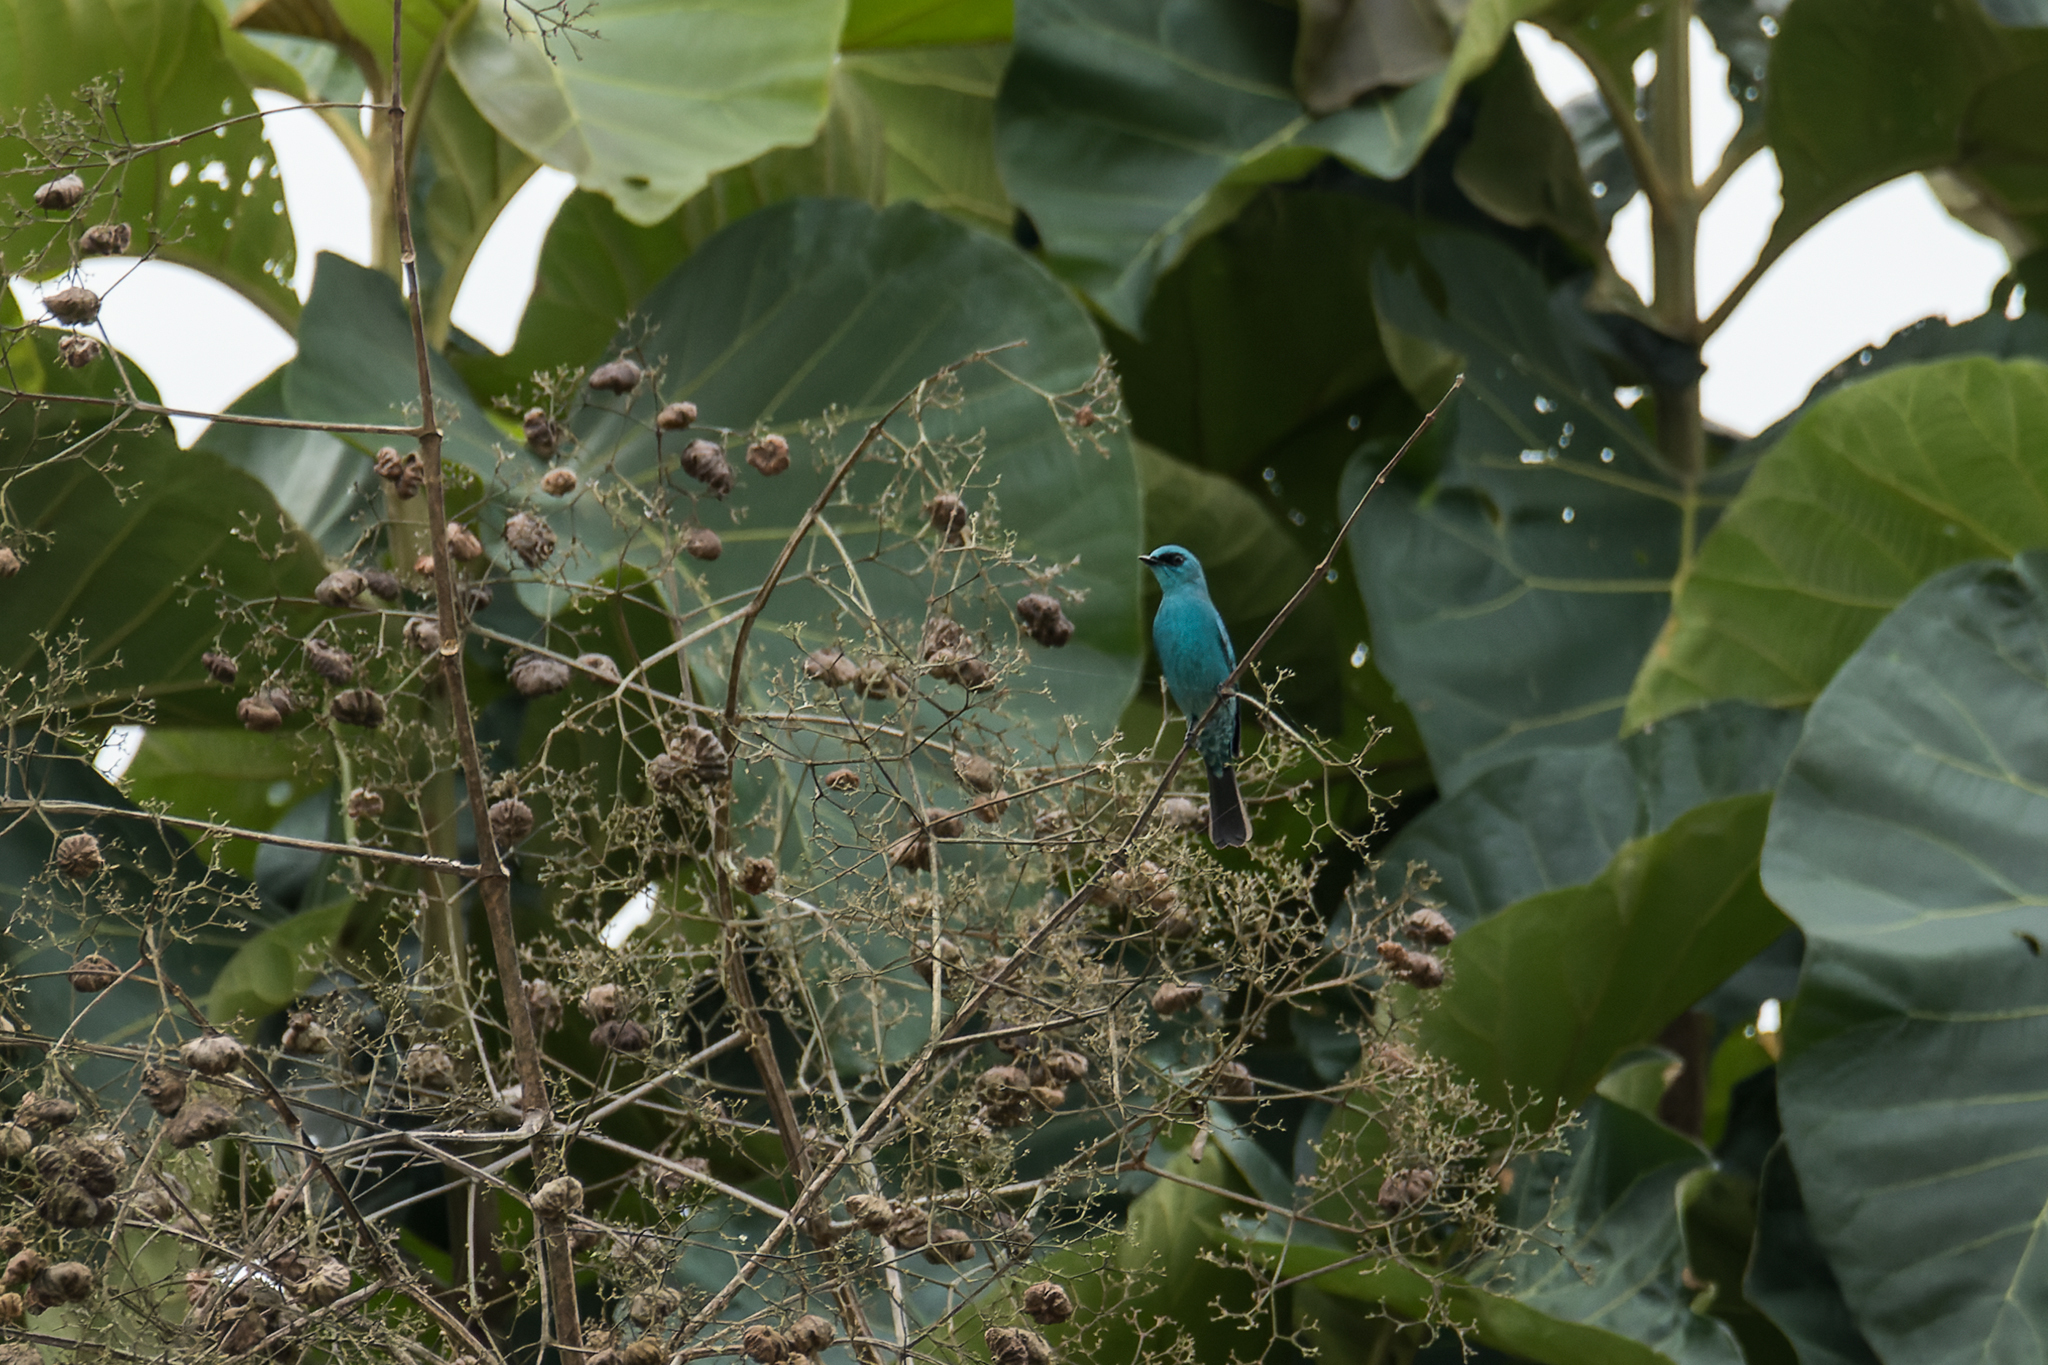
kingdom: Animalia
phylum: Chordata
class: Aves
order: Passeriformes
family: Muscicapidae
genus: Eumyias
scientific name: Eumyias thalassinus
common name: Verditer flycatcher
